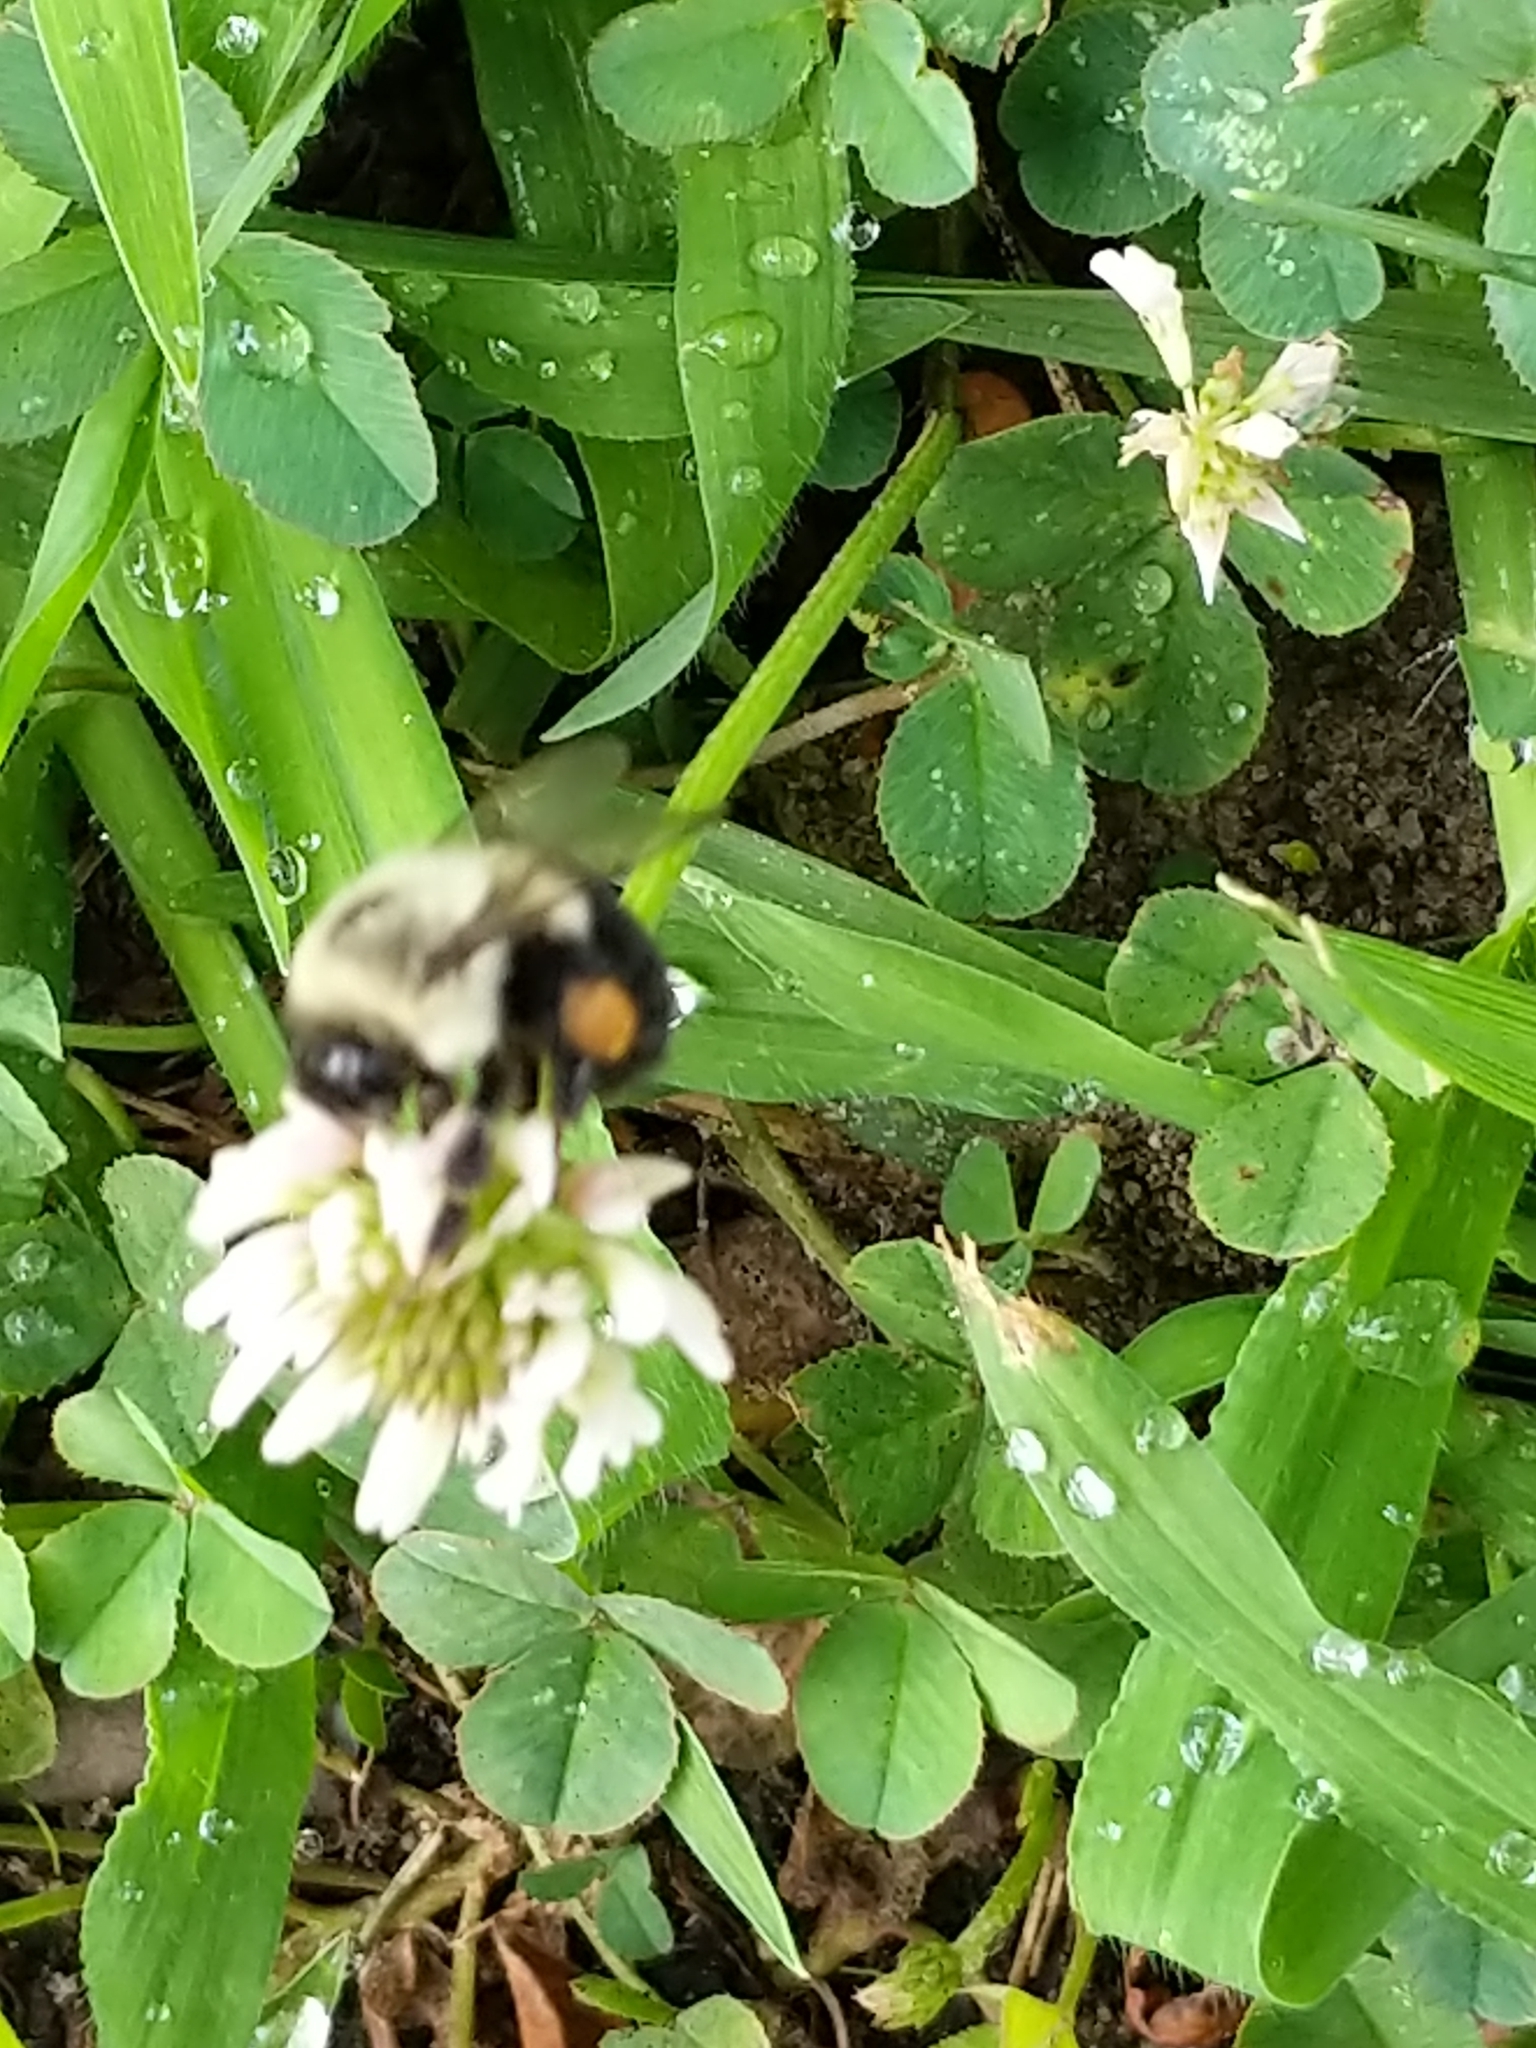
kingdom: Animalia
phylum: Arthropoda
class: Insecta
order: Hymenoptera
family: Apidae
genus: Bombus
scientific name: Bombus impatiens
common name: Common eastern bumble bee
